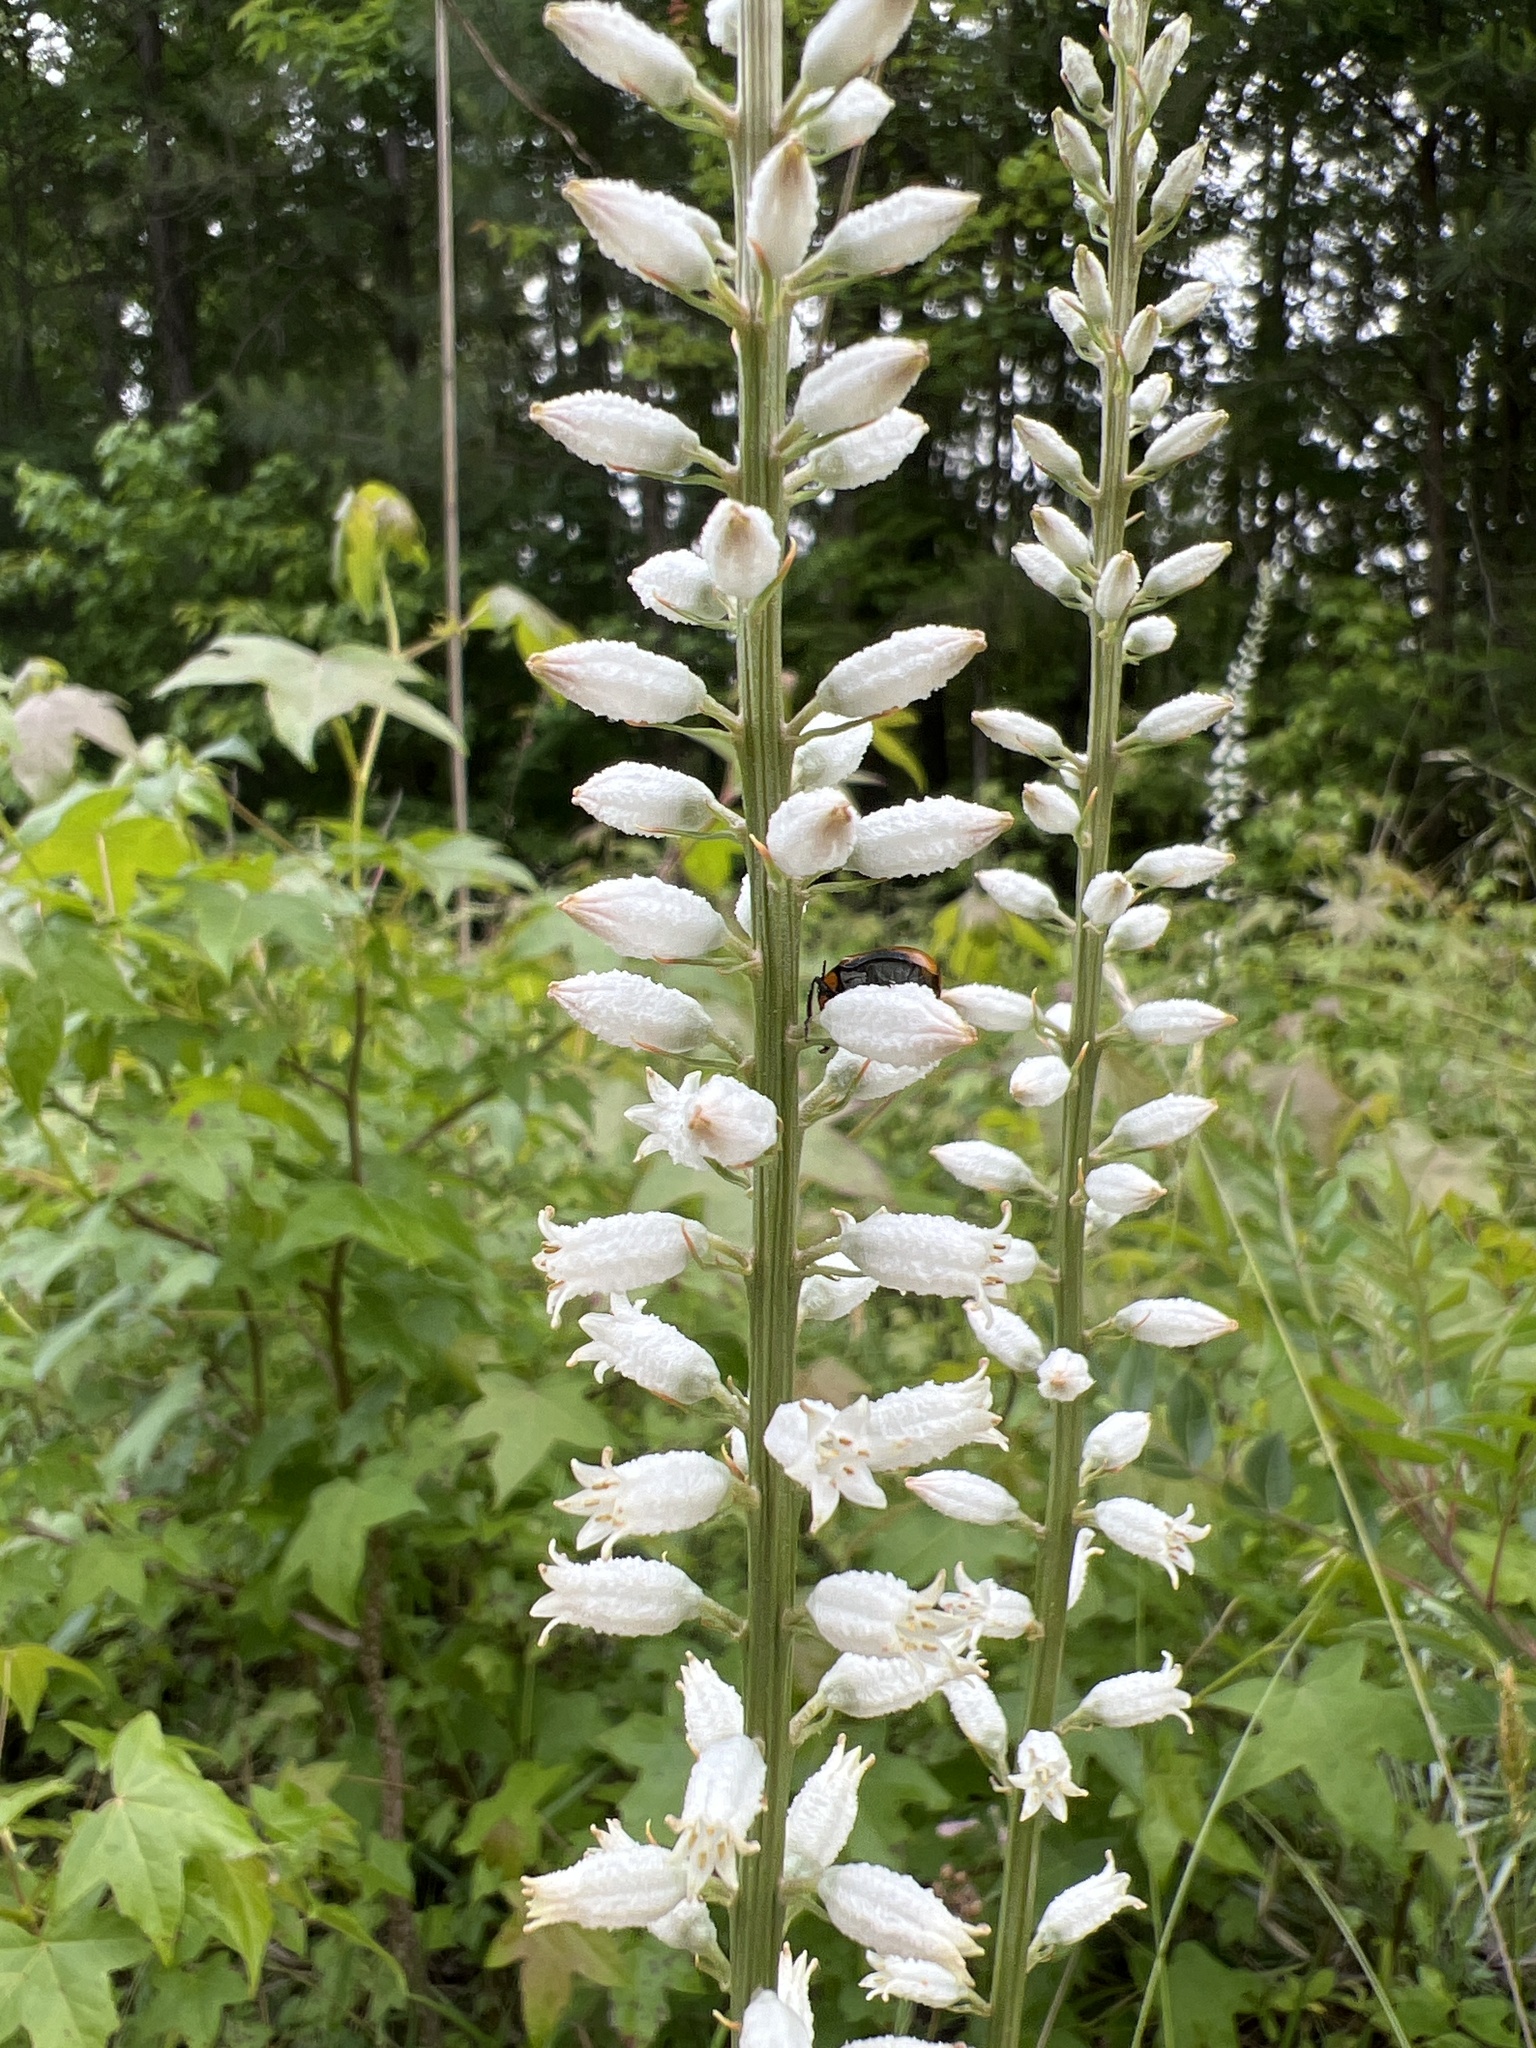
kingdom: Plantae
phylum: Tracheophyta
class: Liliopsida
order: Dioscoreales
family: Nartheciaceae
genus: Aletris
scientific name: Aletris farinosa
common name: Colicroot
